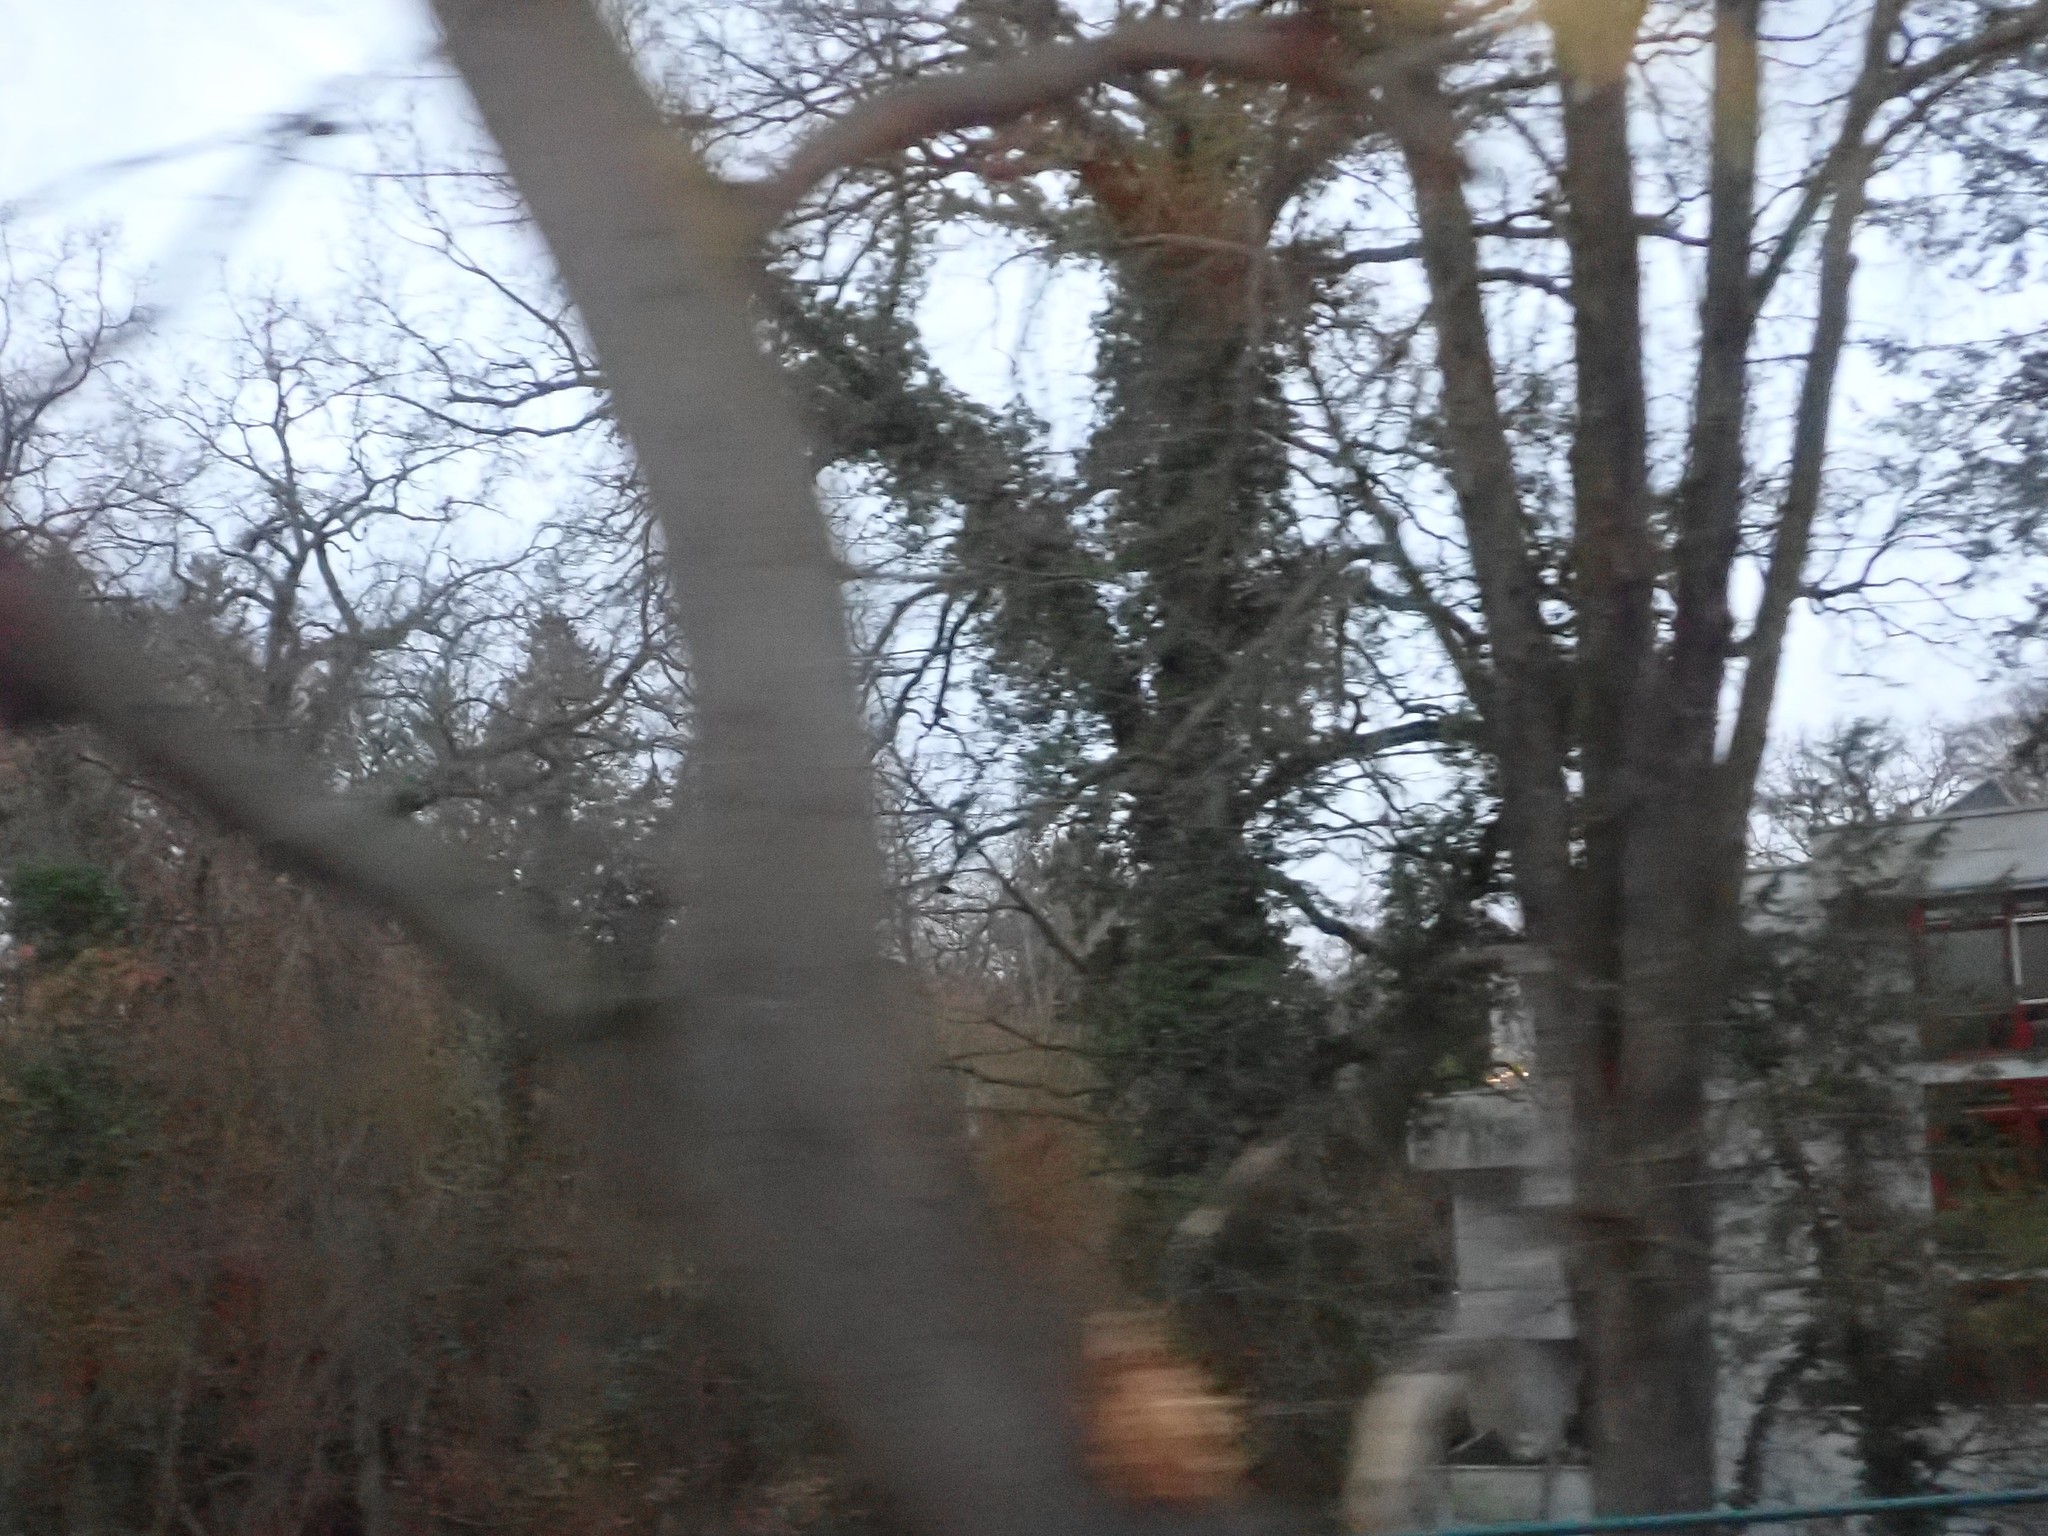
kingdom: Plantae
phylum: Tracheophyta
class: Magnoliopsida
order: Apiales
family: Araliaceae
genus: Hedera
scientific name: Hedera helix
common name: Ivy
